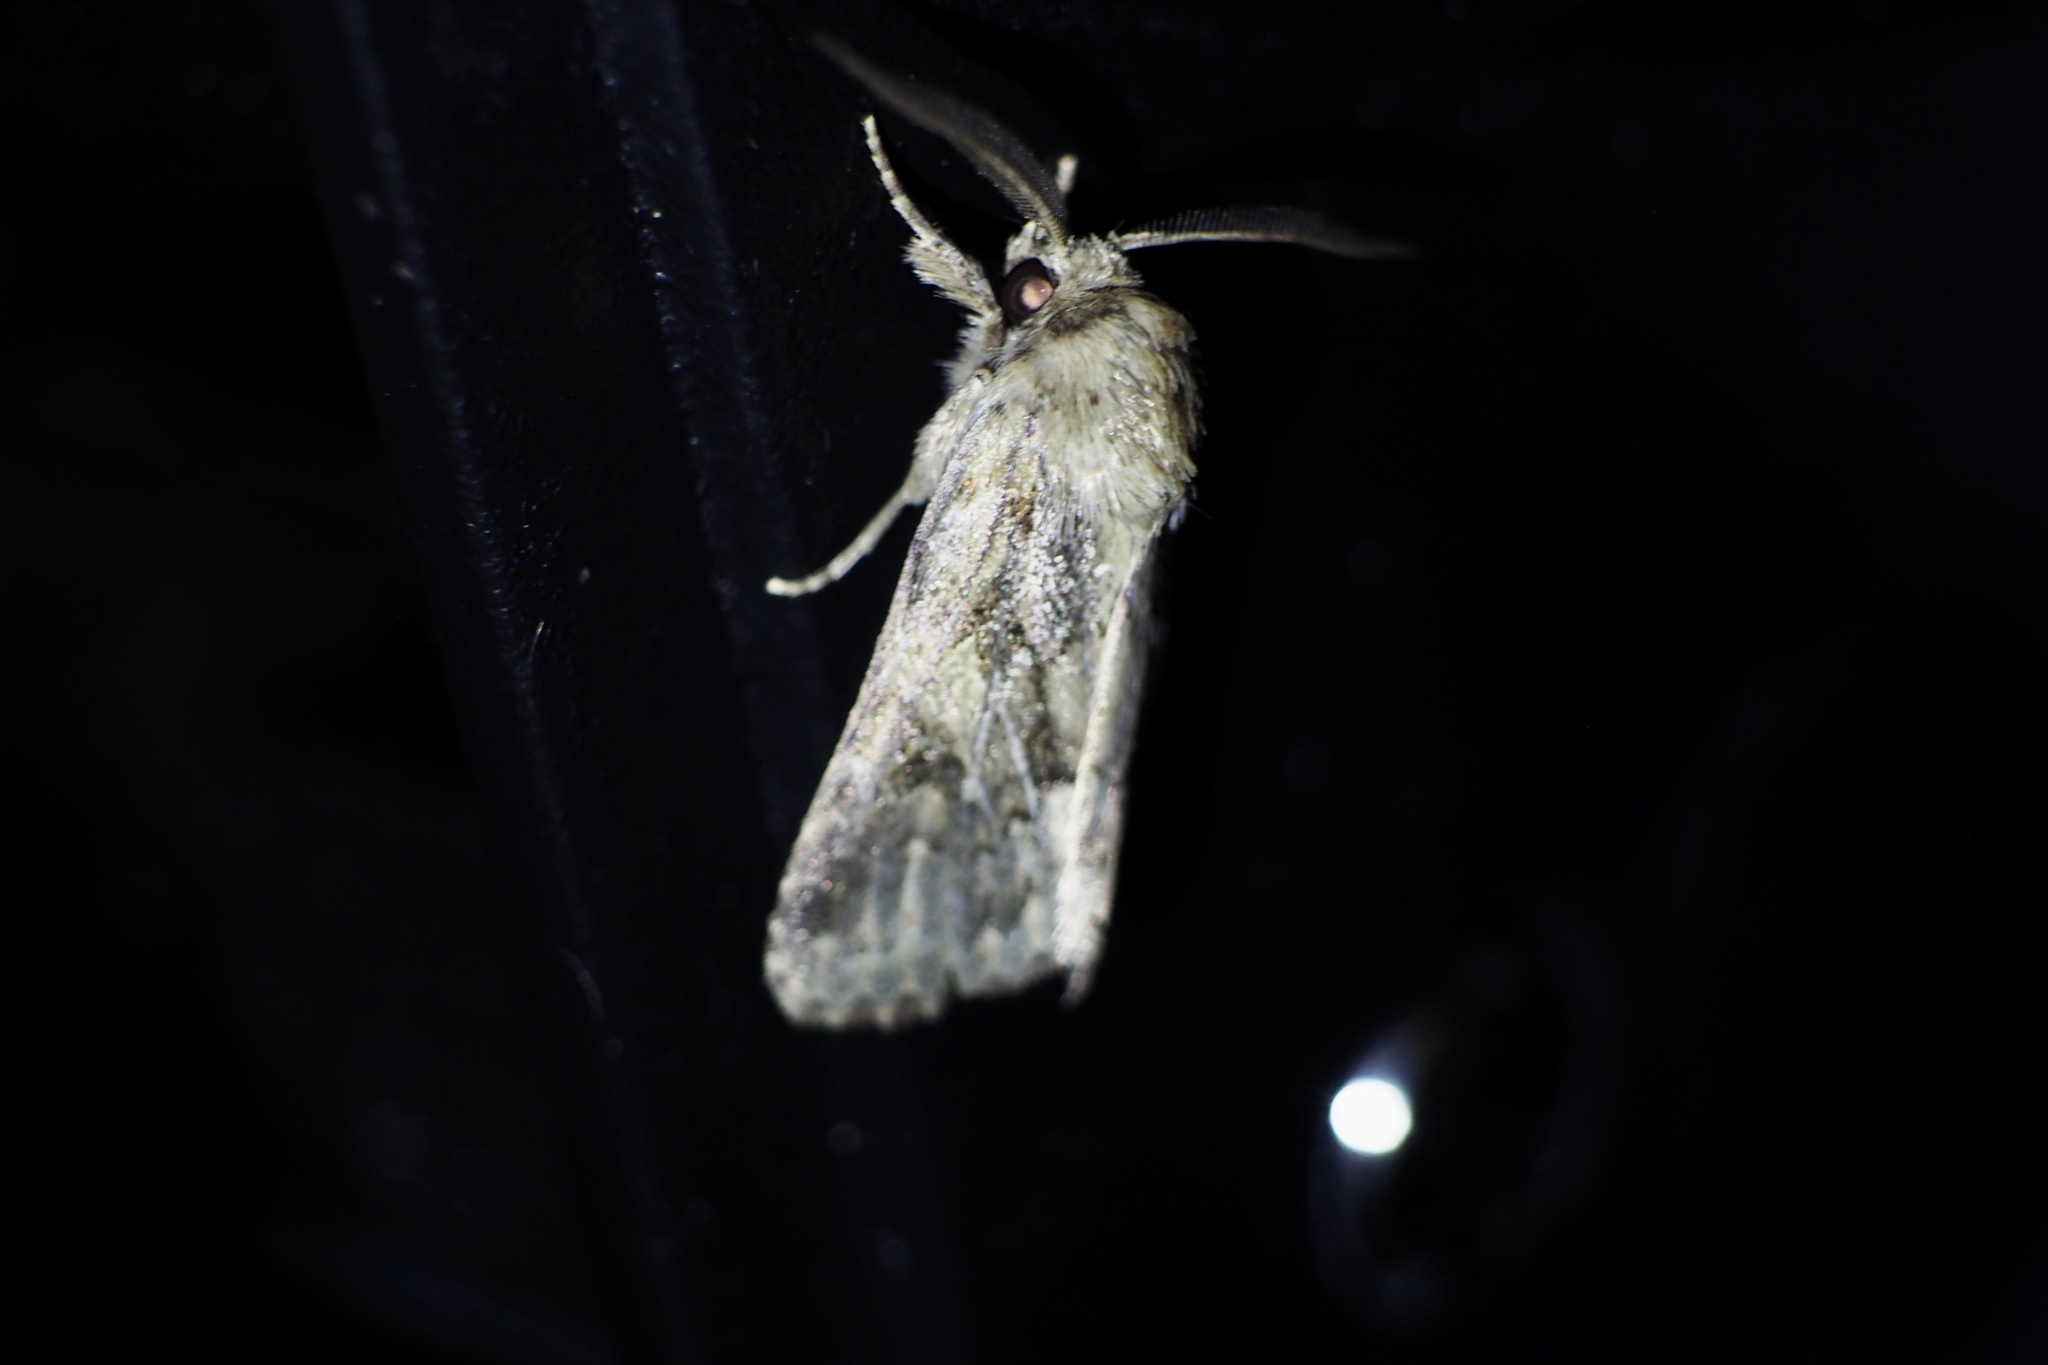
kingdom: Animalia
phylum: Arthropoda
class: Insecta
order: Lepidoptera
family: Noctuidae
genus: Spodoptera
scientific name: Spodoptera depravata
